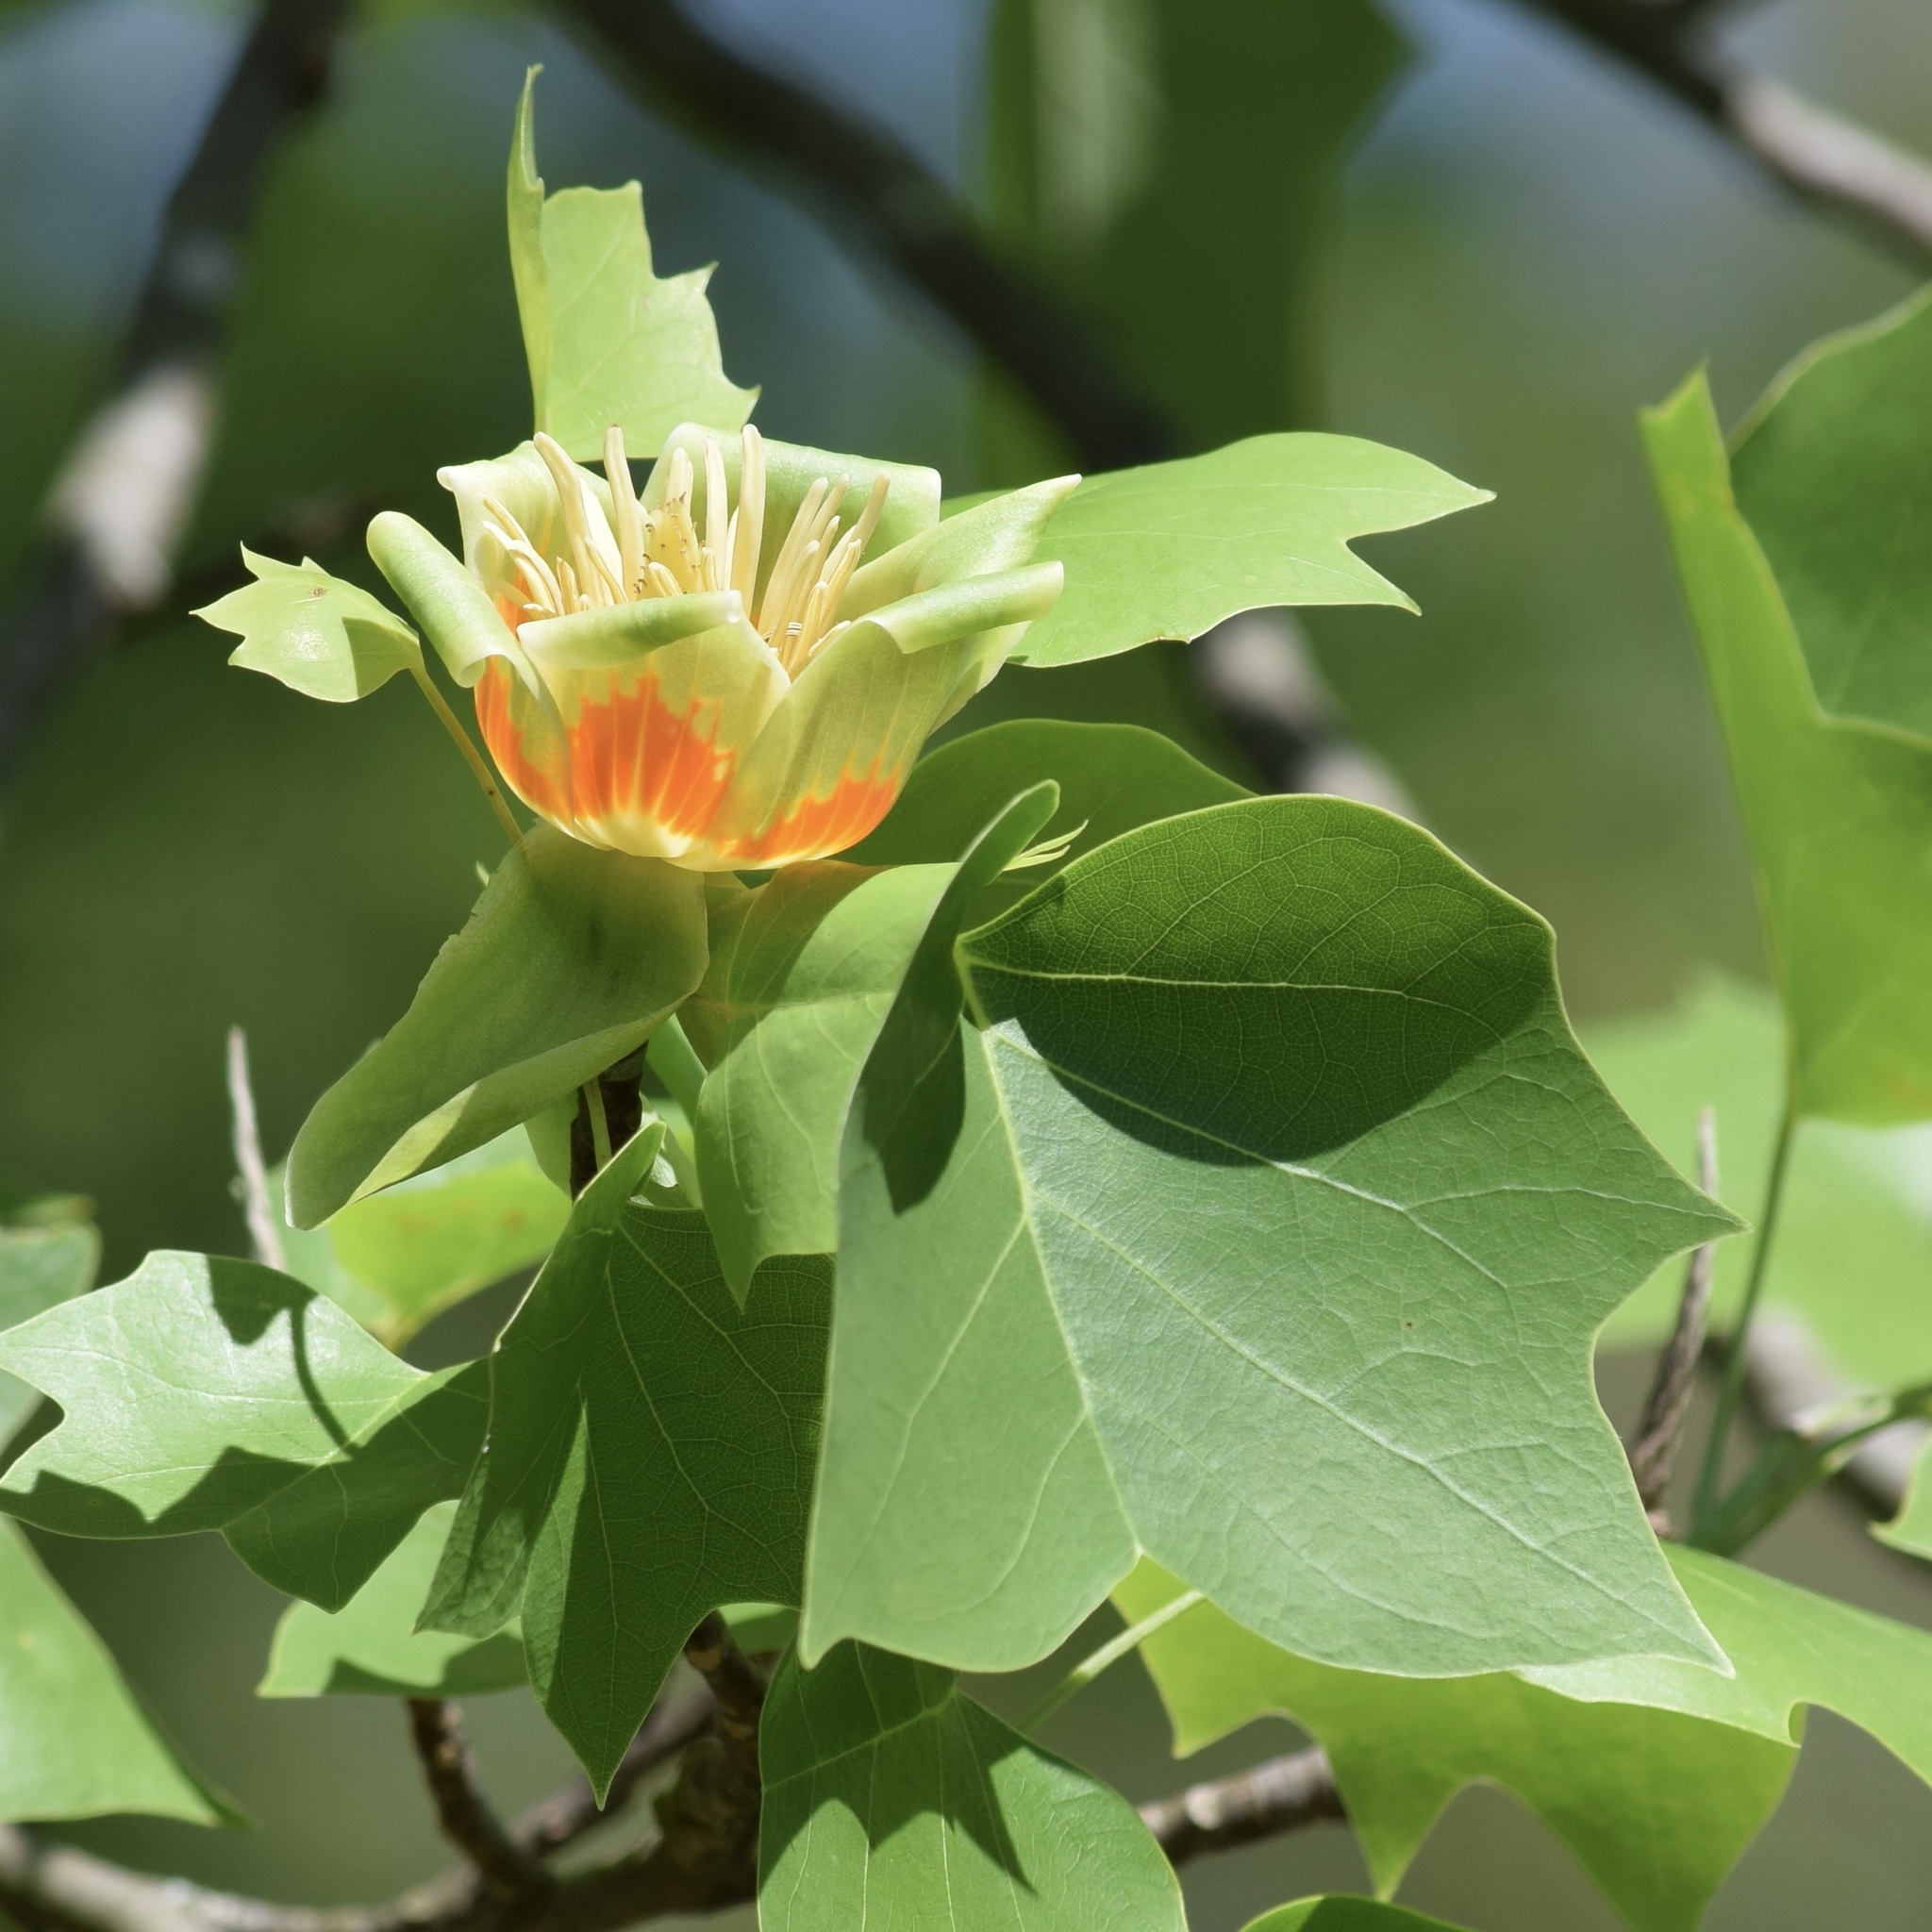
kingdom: Plantae
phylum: Tracheophyta
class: Magnoliopsida
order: Magnoliales
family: Magnoliaceae
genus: Liriodendron
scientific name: Liriodendron tulipifera
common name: Tulip tree
